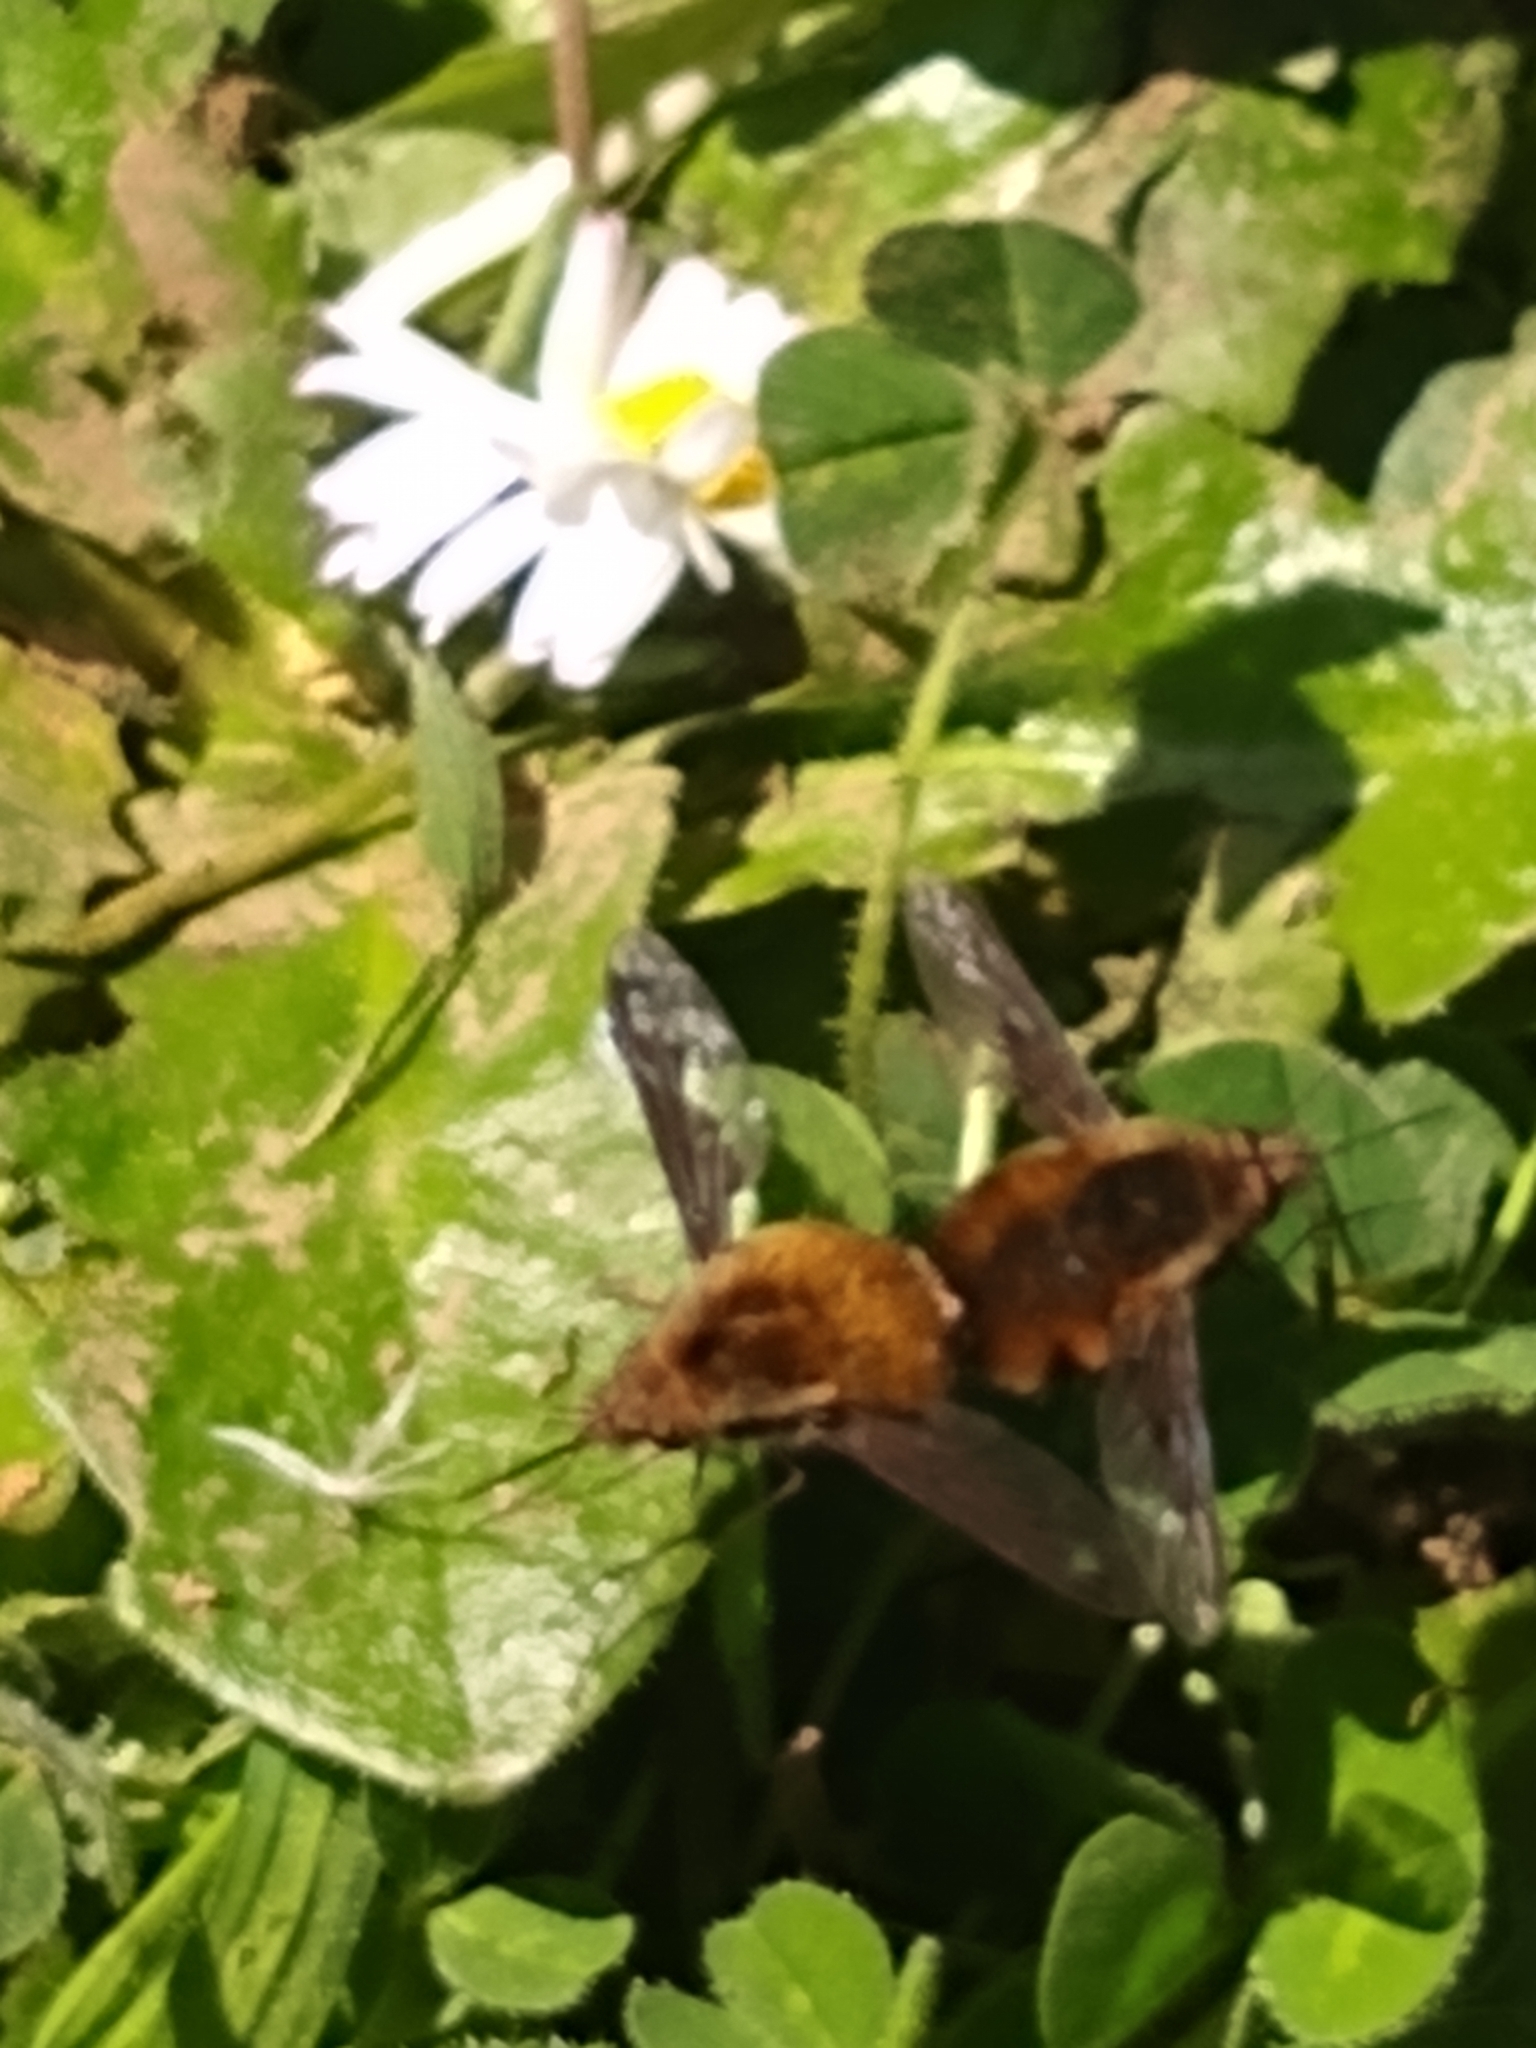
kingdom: Animalia
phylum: Arthropoda
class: Insecta
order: Diptera
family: Bombyliidae
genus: Bombylius
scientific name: Bombylius major
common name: Bee fly
